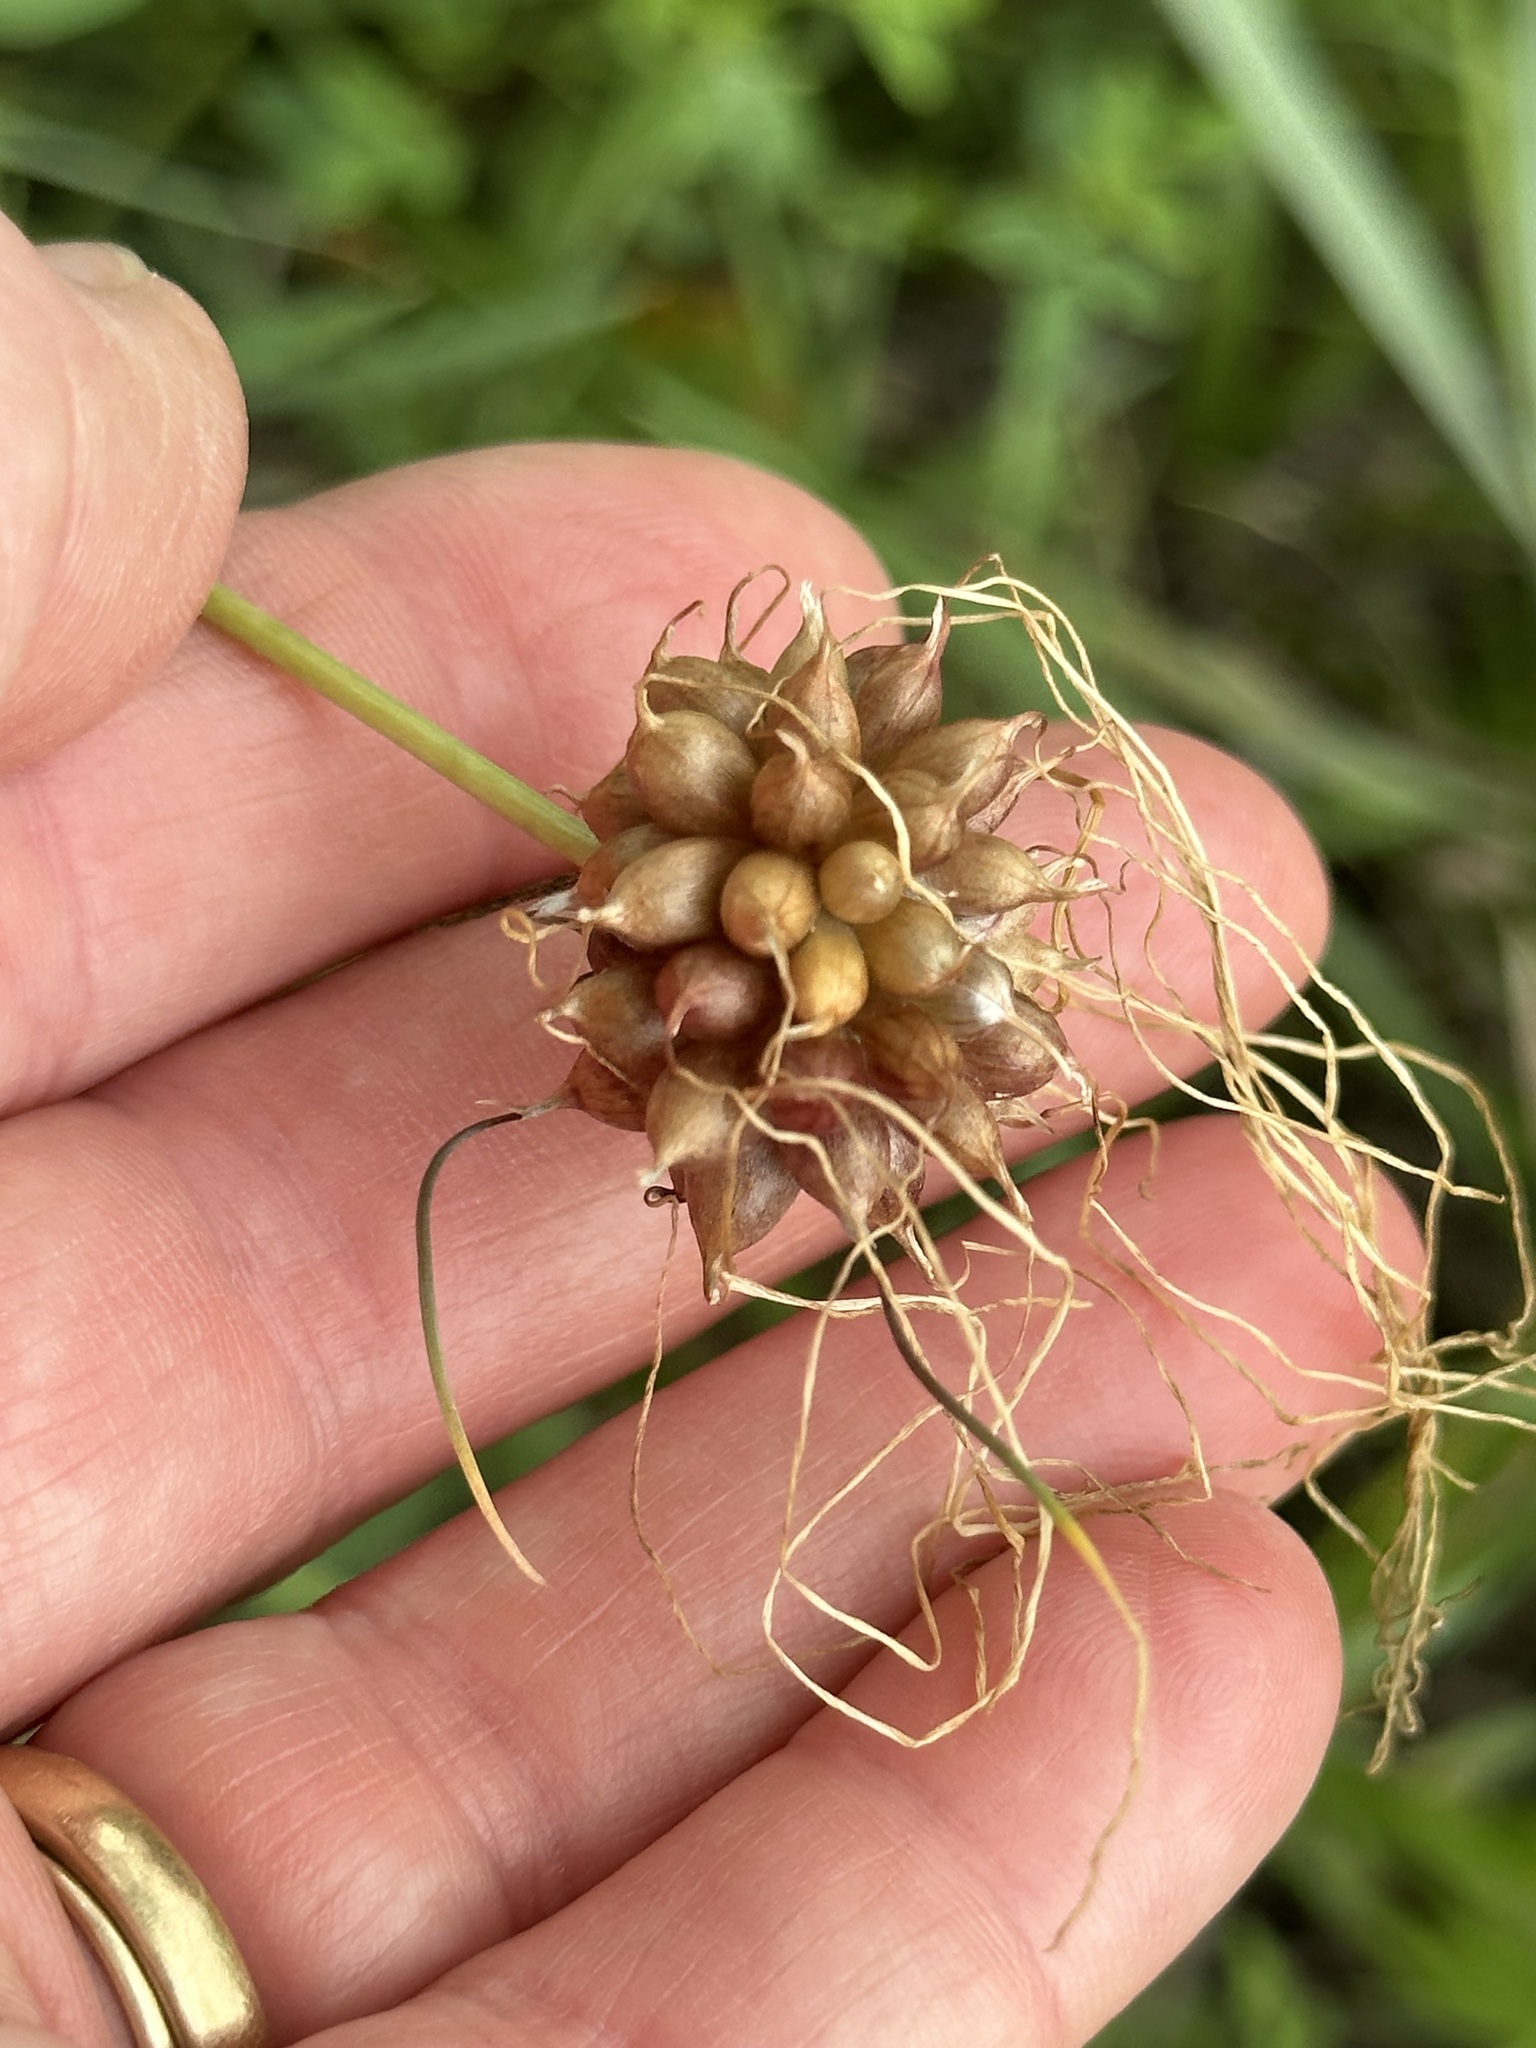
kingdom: Plantae
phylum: Tracheophyta
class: Liliopsida
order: Asparagales
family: Amaryllidaceae
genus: Allium
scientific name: Allium vineale
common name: Crow garlic
